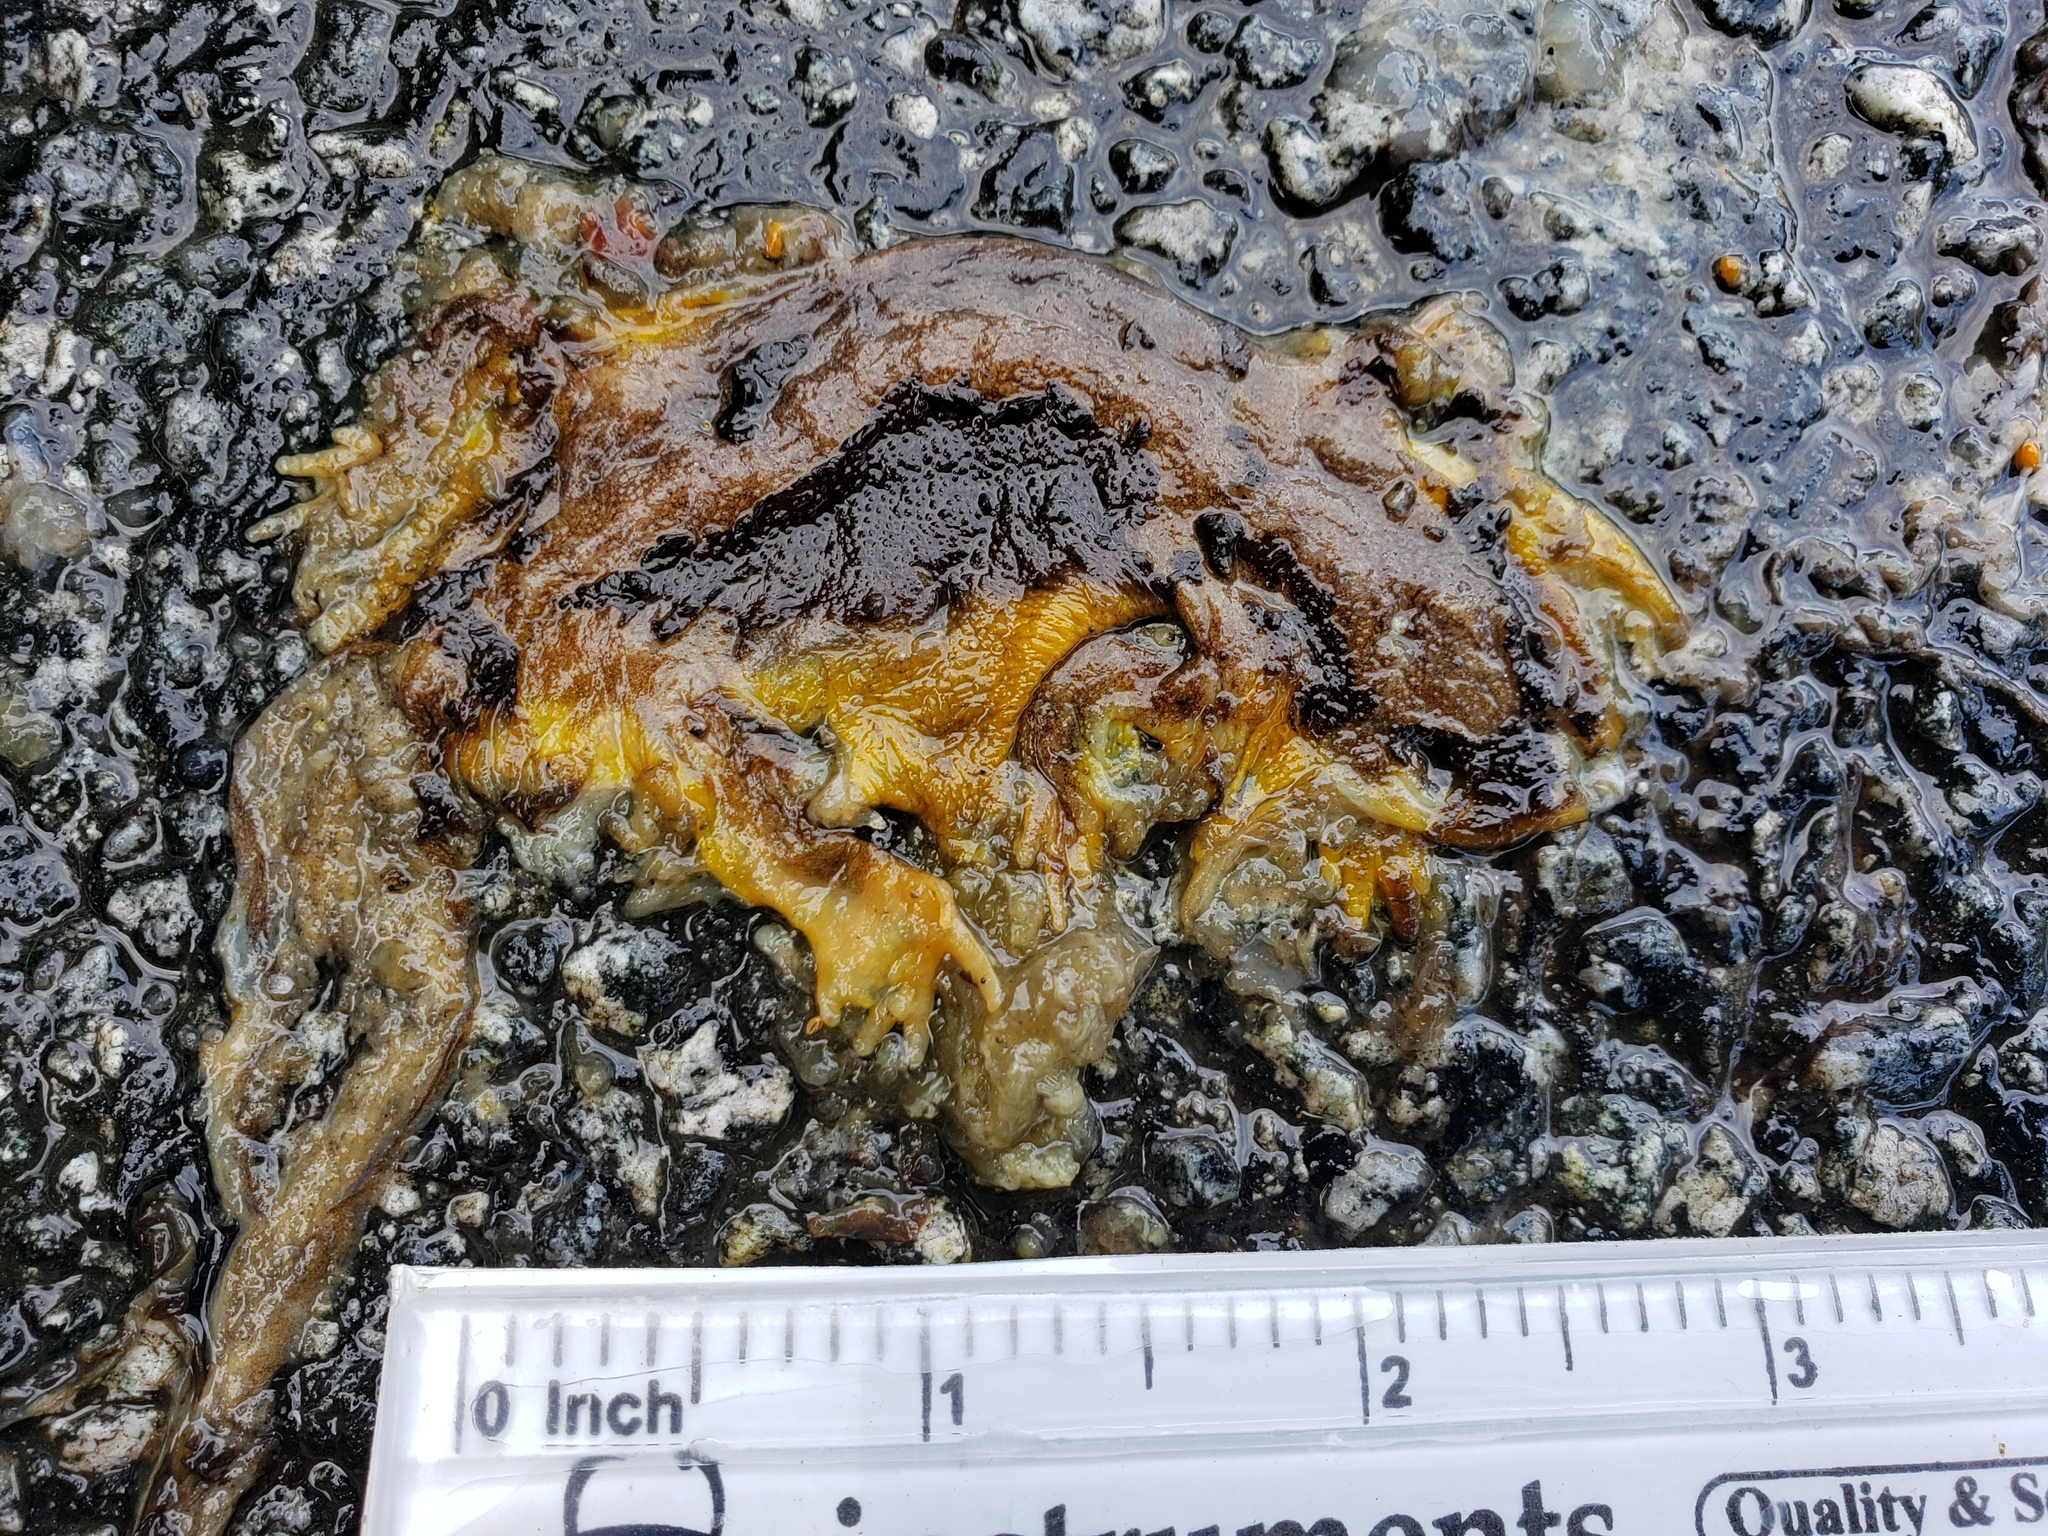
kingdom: Animalia
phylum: Chordata
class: Amphibia
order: Caudata
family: Salamandridae
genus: Taricha
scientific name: Taricha
